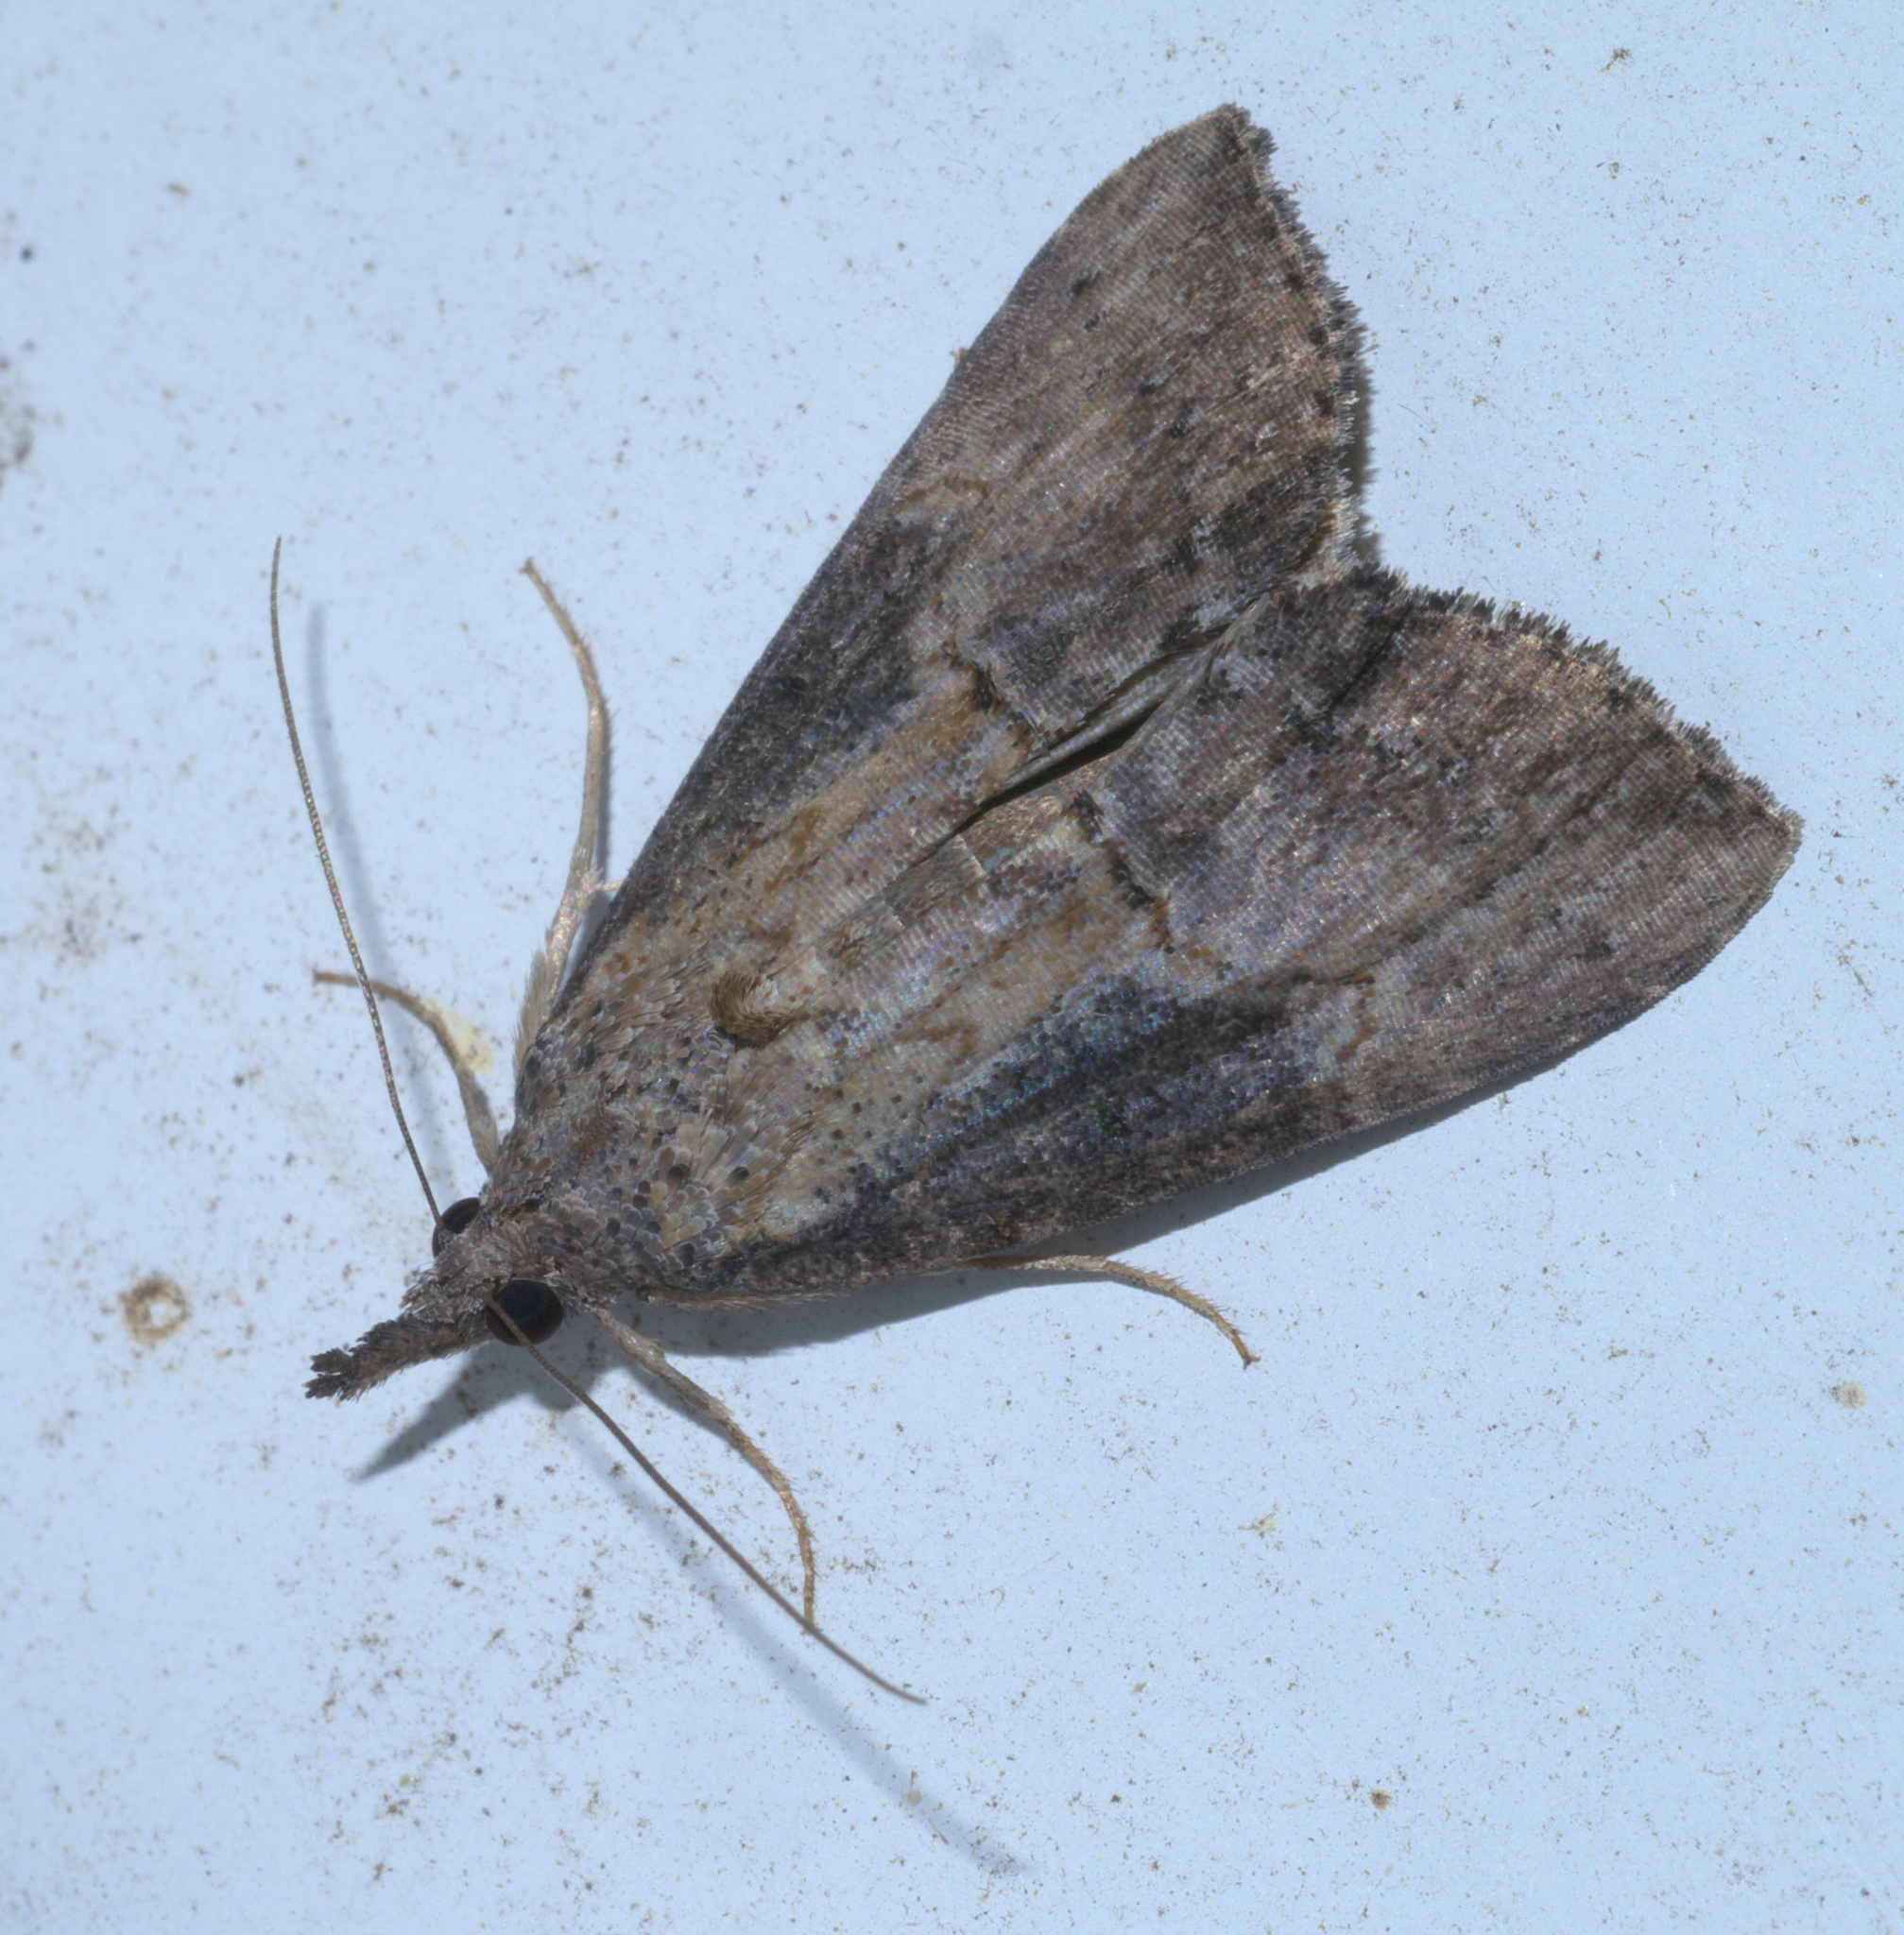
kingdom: Animalia
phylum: Arthropoda
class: Insecta
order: Lepidoptera
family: Erebidae
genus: Hypena
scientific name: Hypena scabra
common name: Green cloverworm
